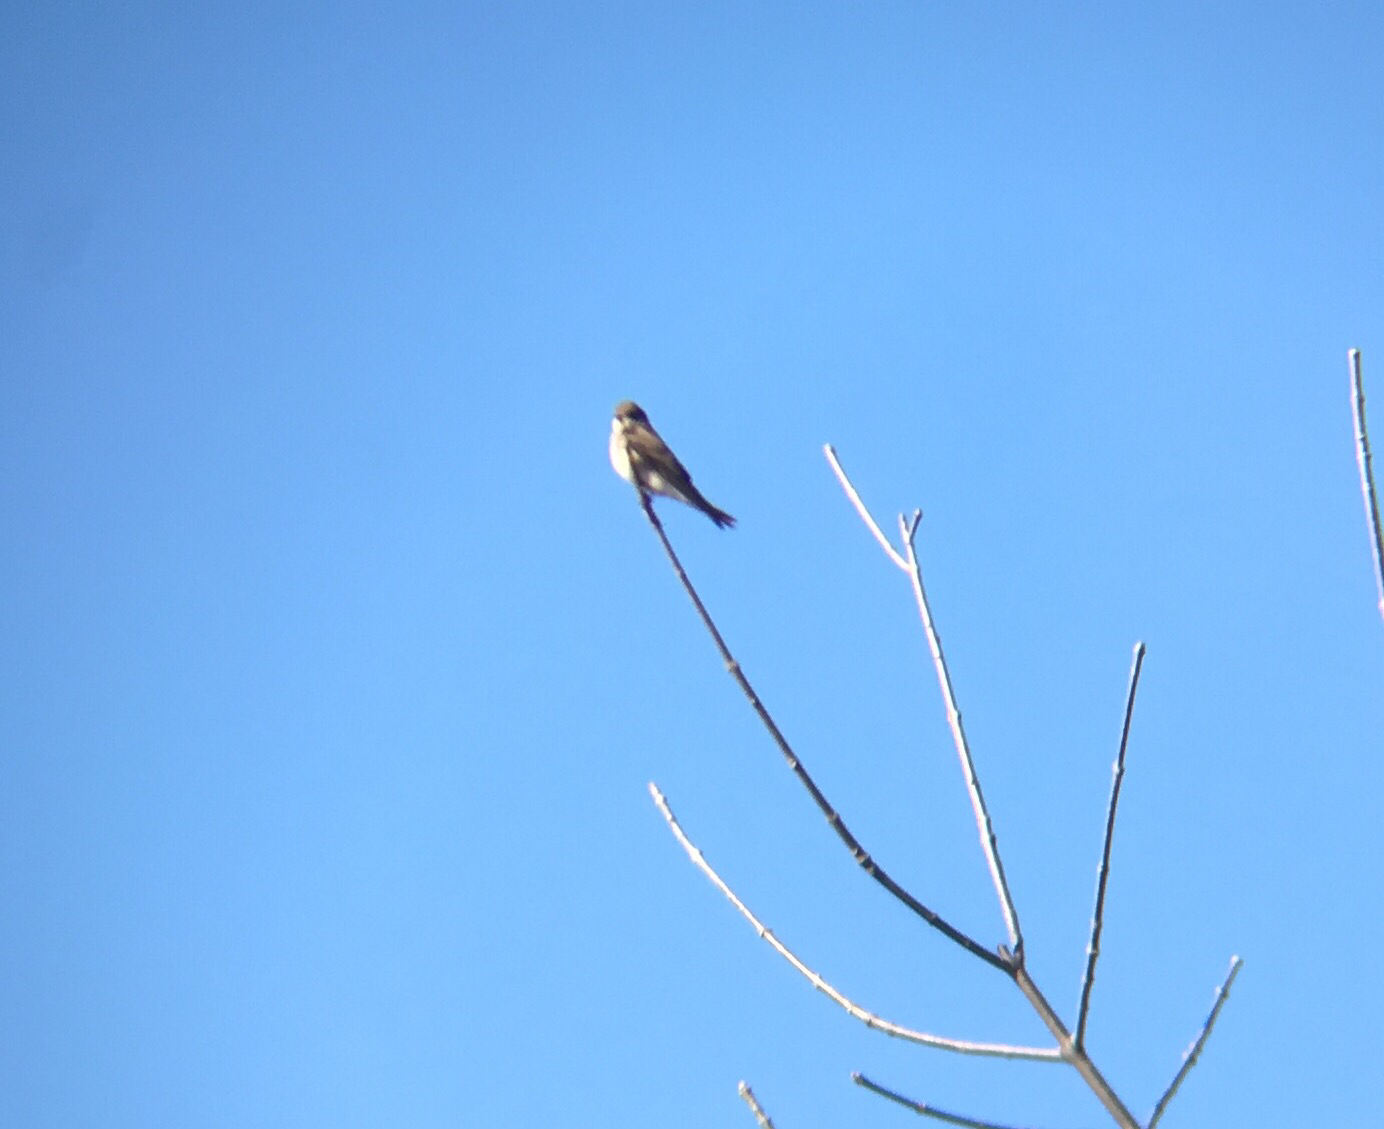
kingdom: Animalia
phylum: Chordata
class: Aves
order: Passeriformes
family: Hirundinidae
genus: Tachycineta
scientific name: Tachycineta bicolor
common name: Tree swallow
